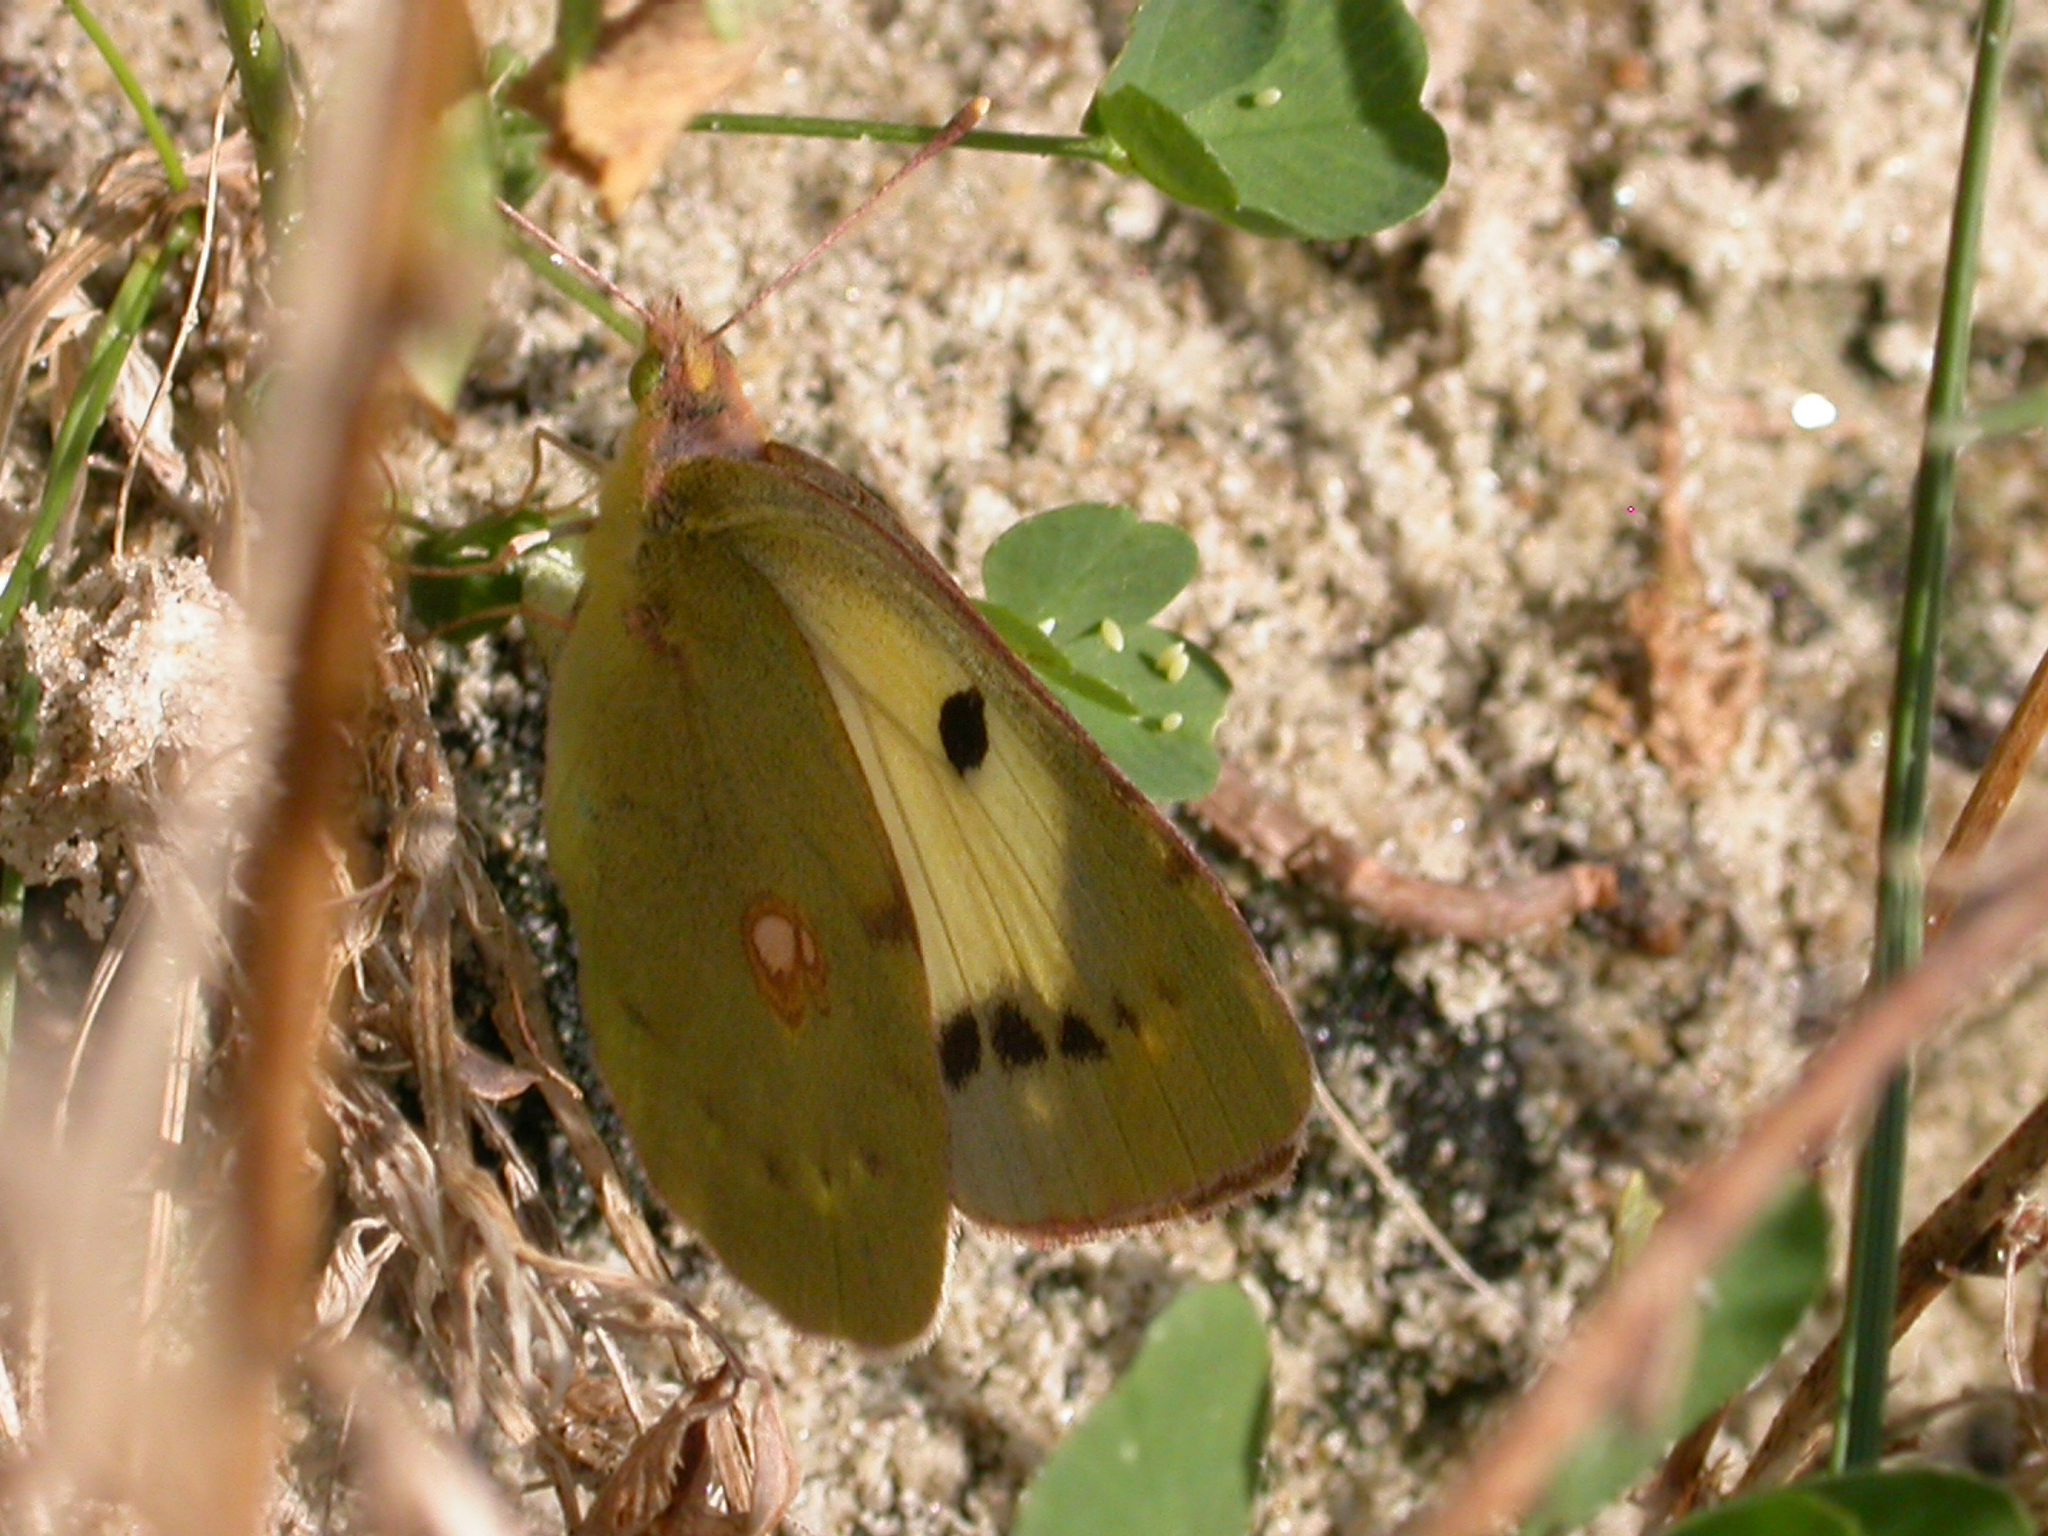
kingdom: Animalia
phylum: Arthropoda
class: Insecta
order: Lepidoptera
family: Pieridae
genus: Colias
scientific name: Colias croceus
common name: Clouded yellow
